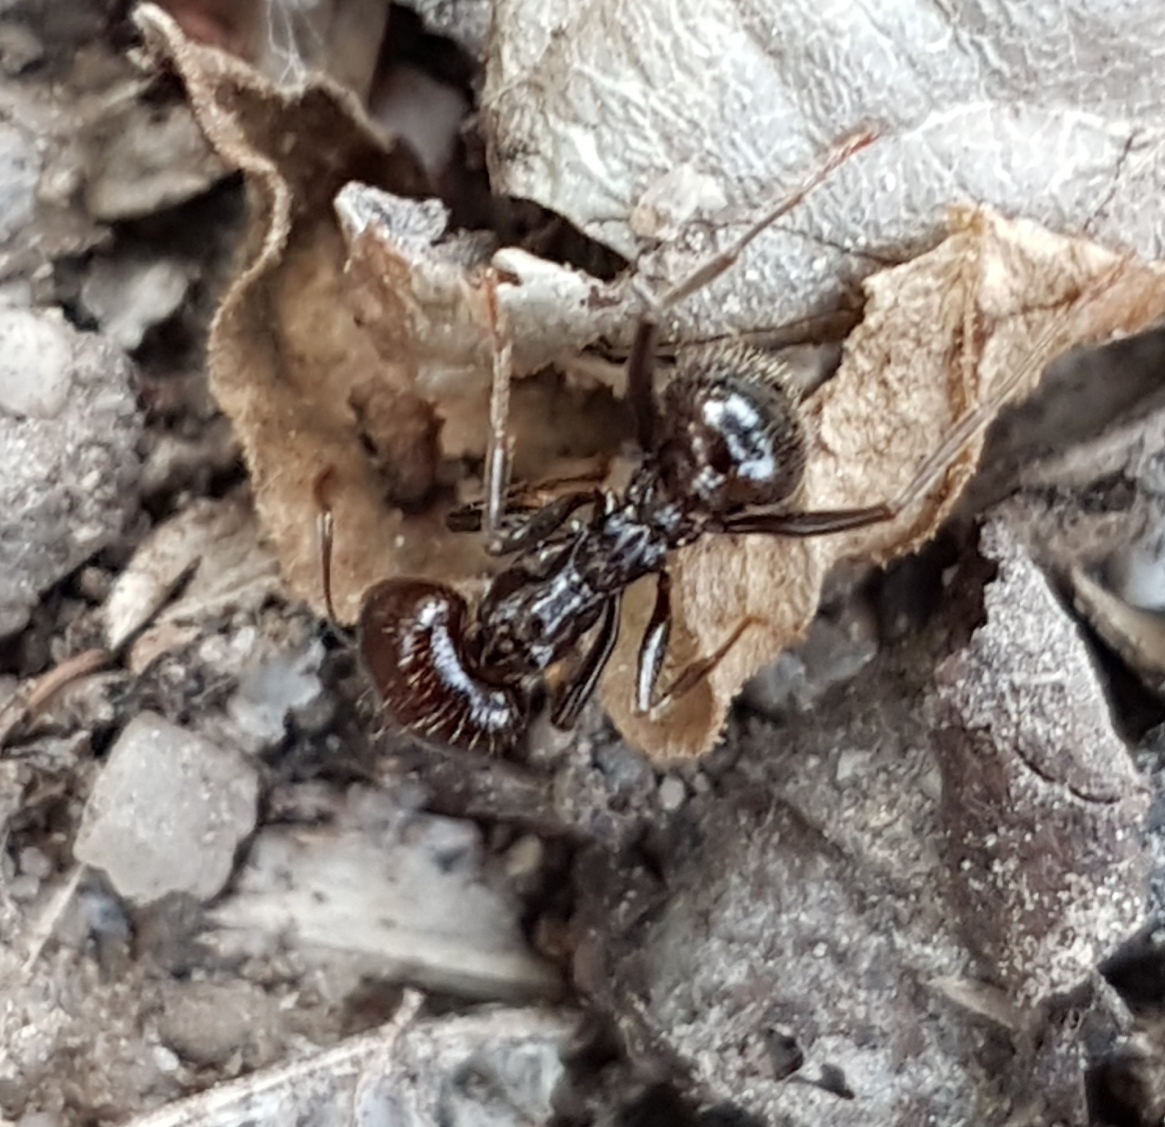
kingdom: Animalia
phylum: Arthropoda
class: Insecta
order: Hymenoptera
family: Formicidae
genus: Messor
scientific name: Messor barbarus
